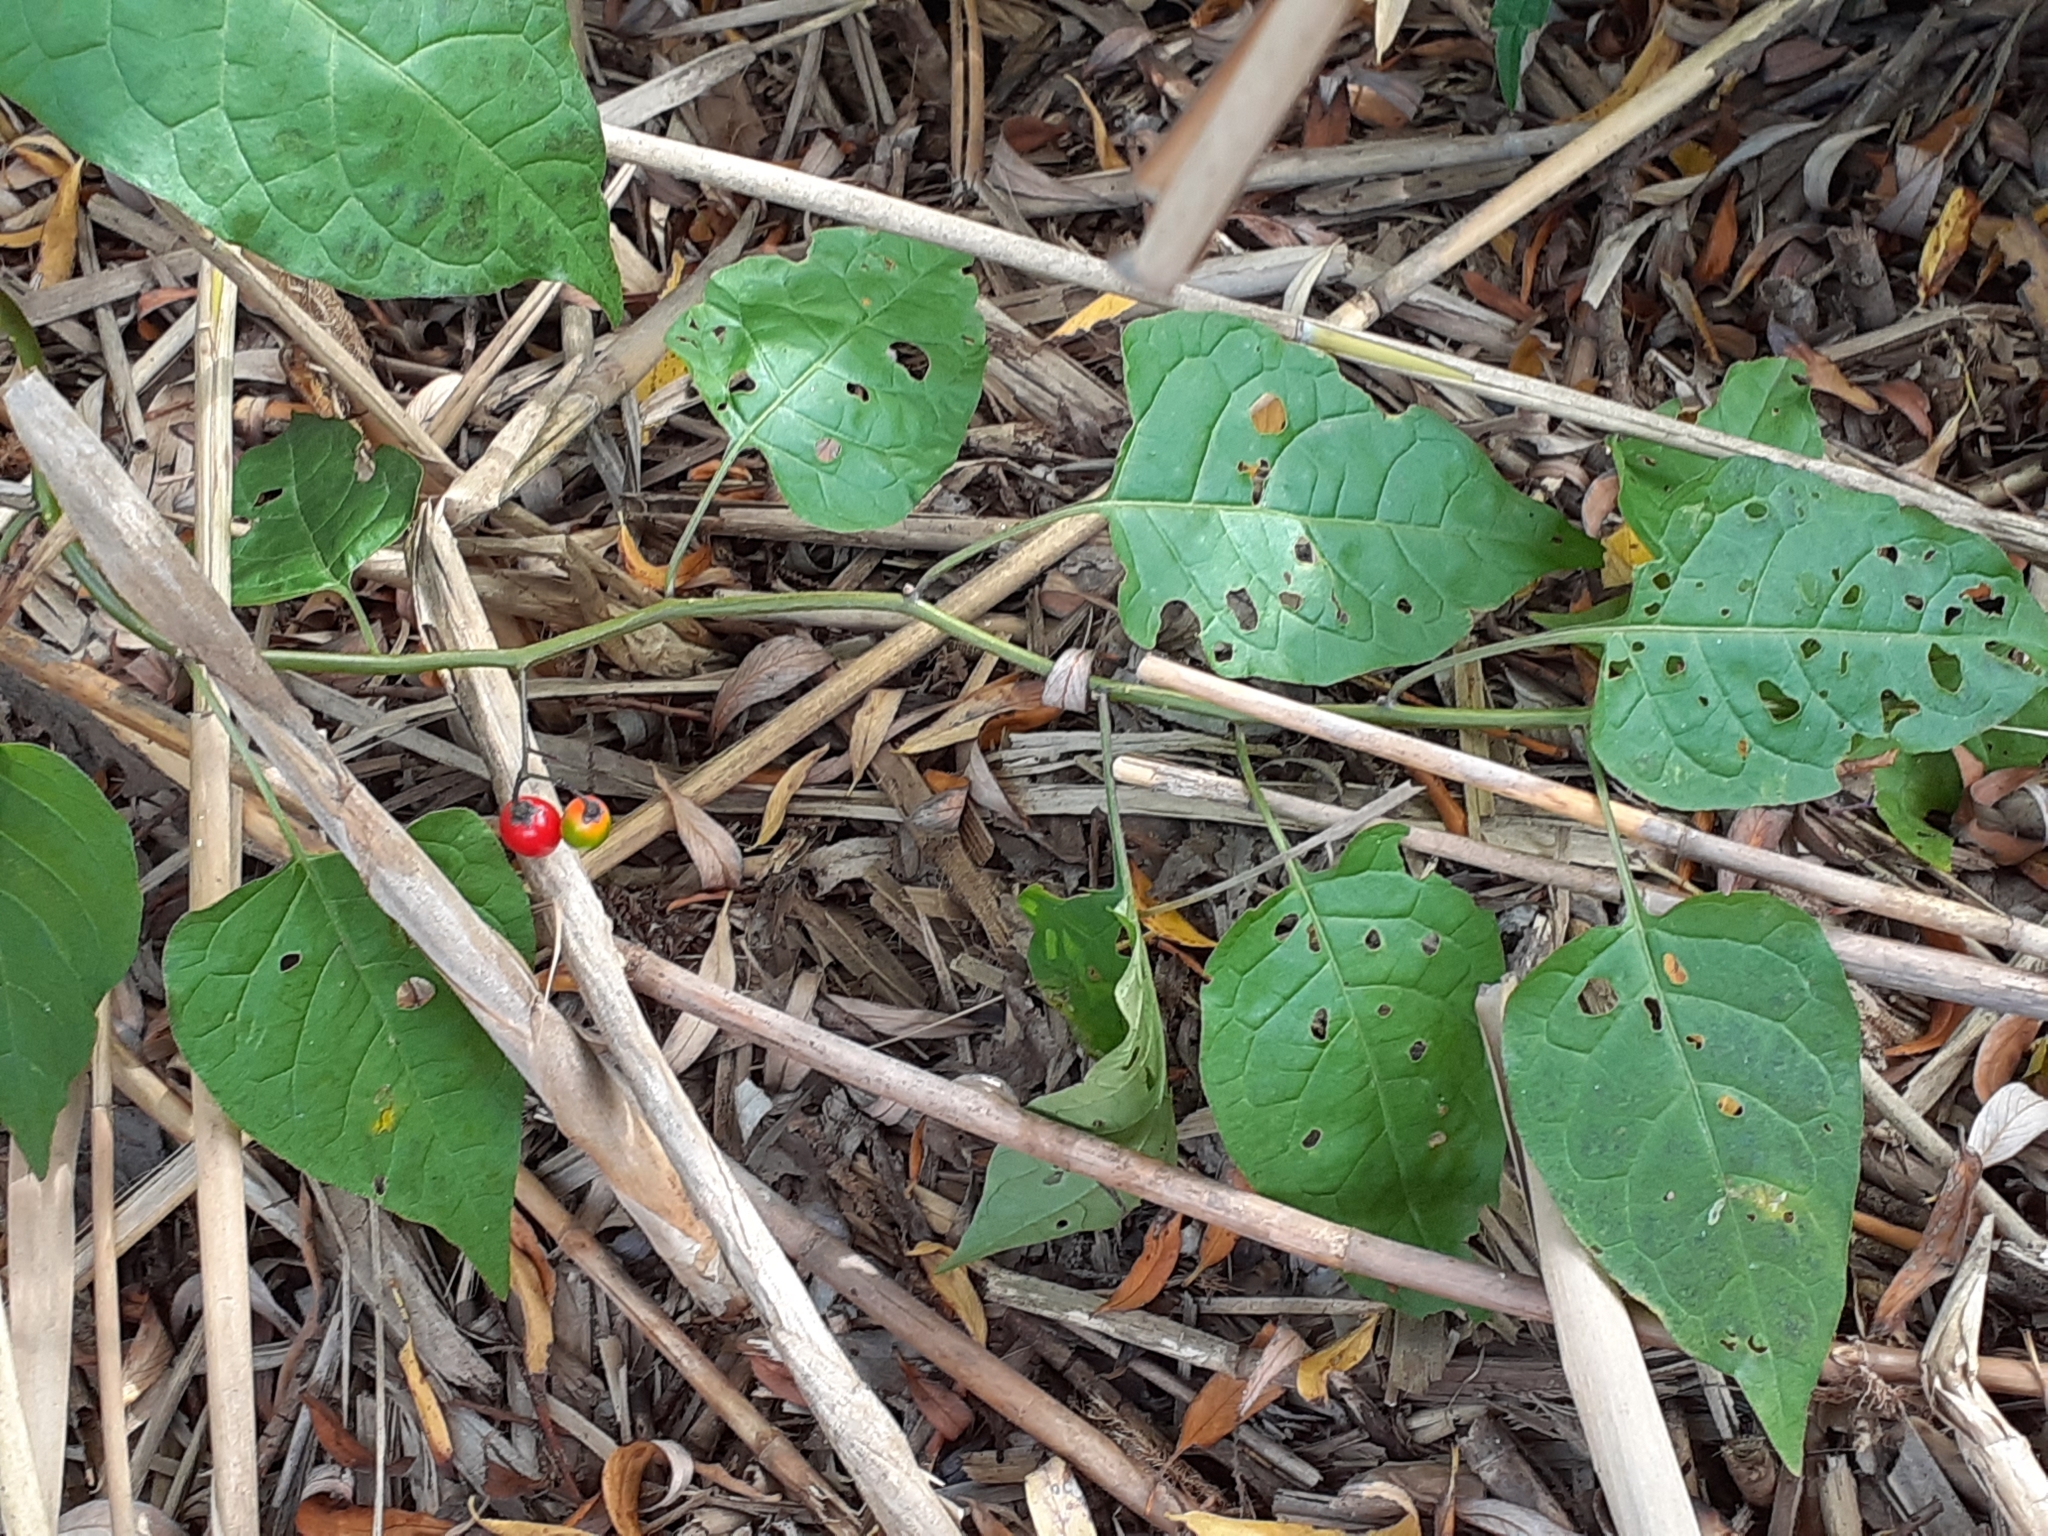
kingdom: Plantae
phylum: Tracheophyta
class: Magnoliopsida
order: Solanales
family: Solanaceae
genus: Solanum
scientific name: Solanum dulcamara
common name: Climbing nightshade
